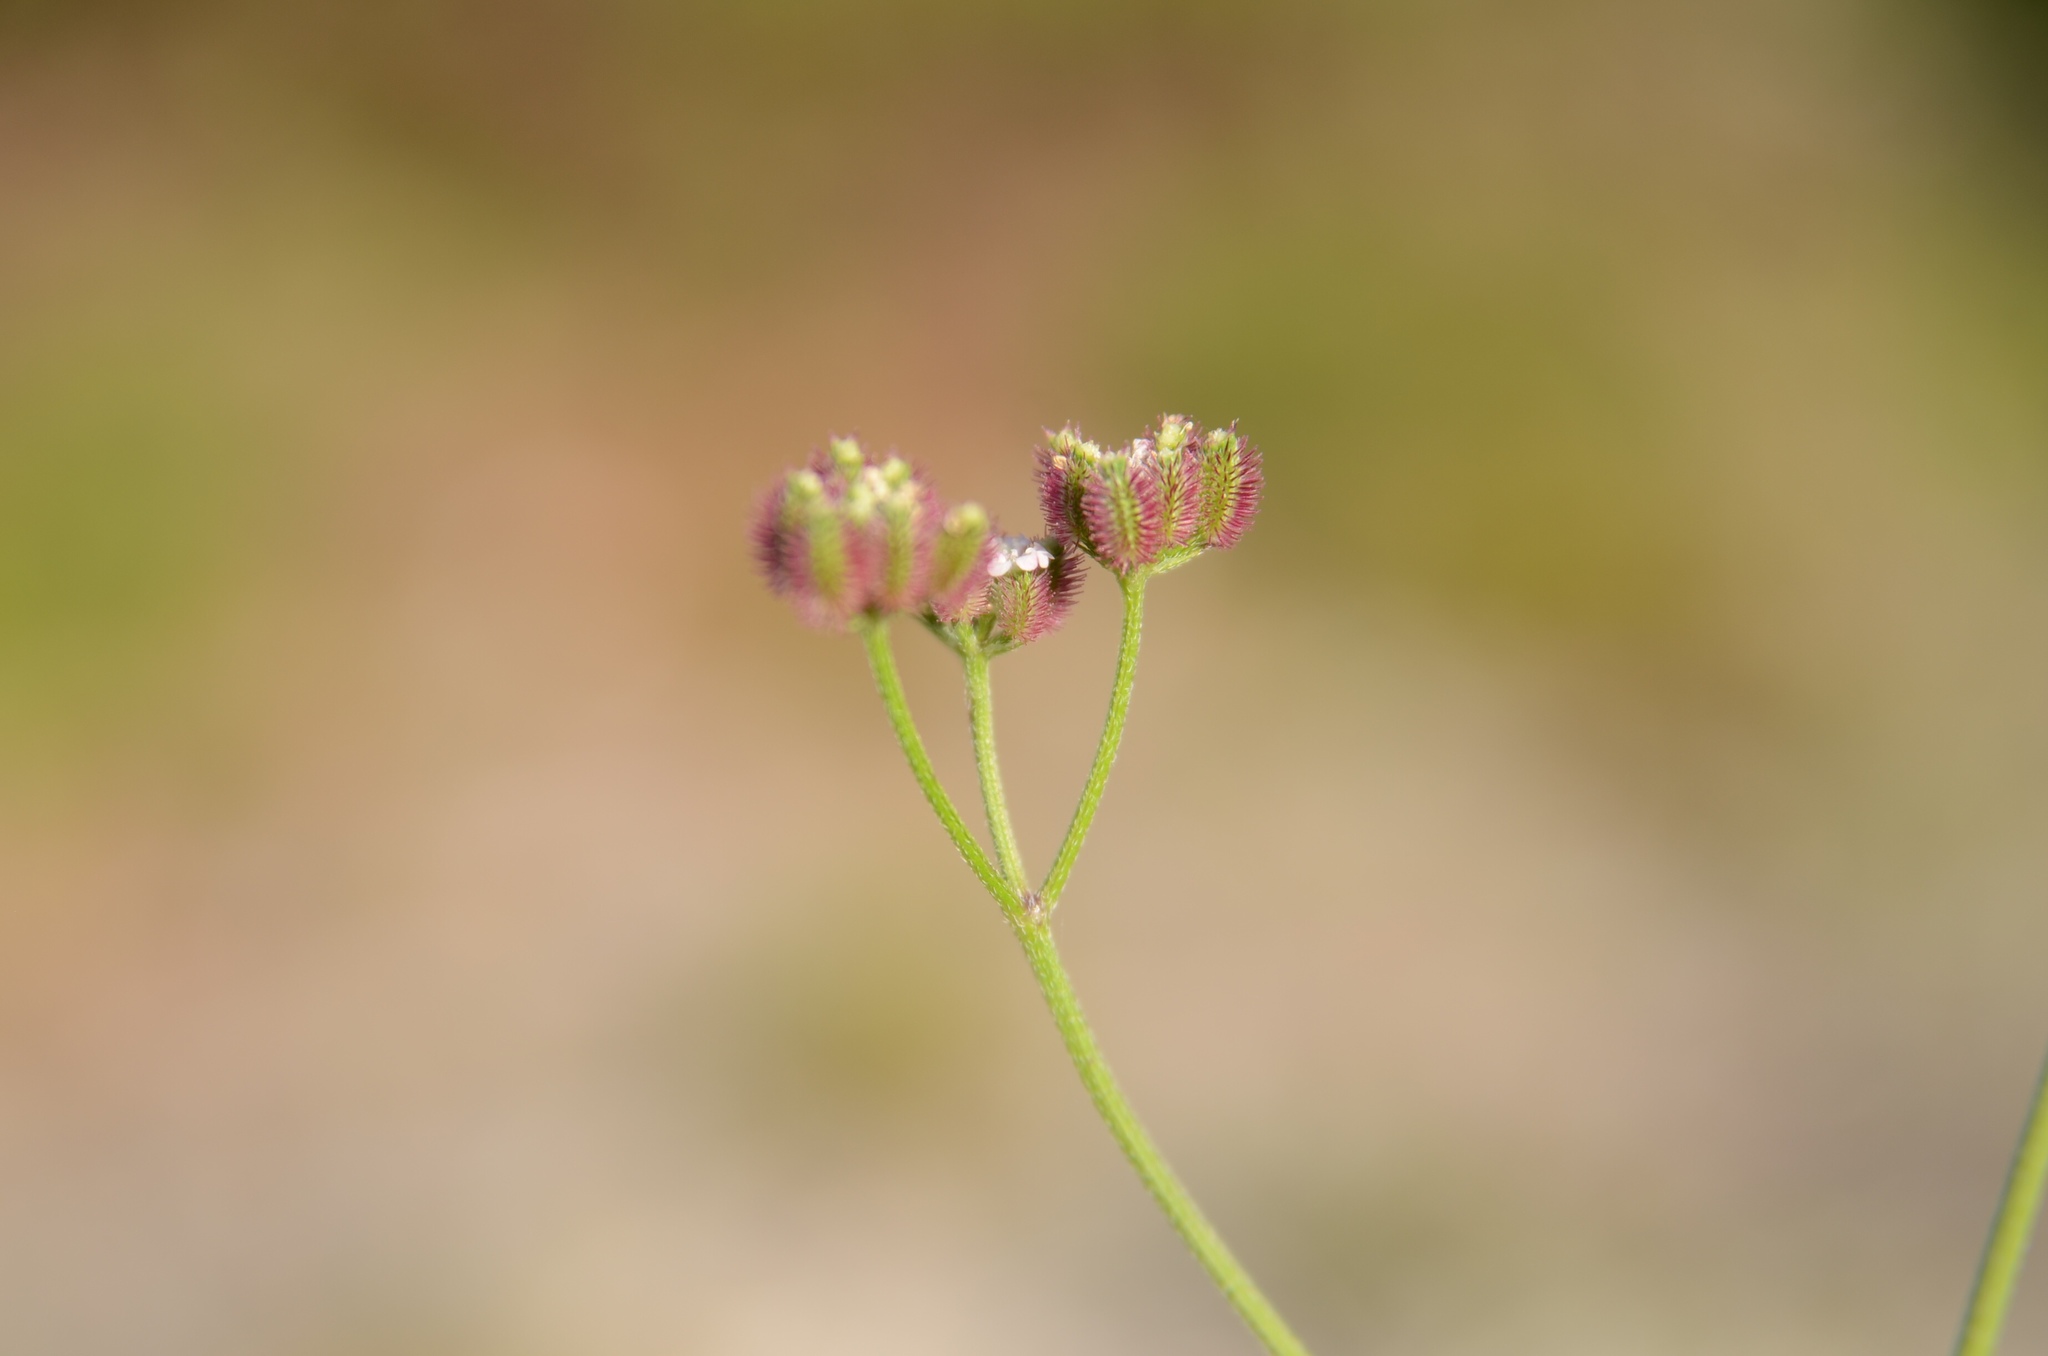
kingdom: Plantae
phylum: Tracheophyta
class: Magnoliopsida
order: Apiales
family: Apiaceae
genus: Torilis
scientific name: Torilis africana
